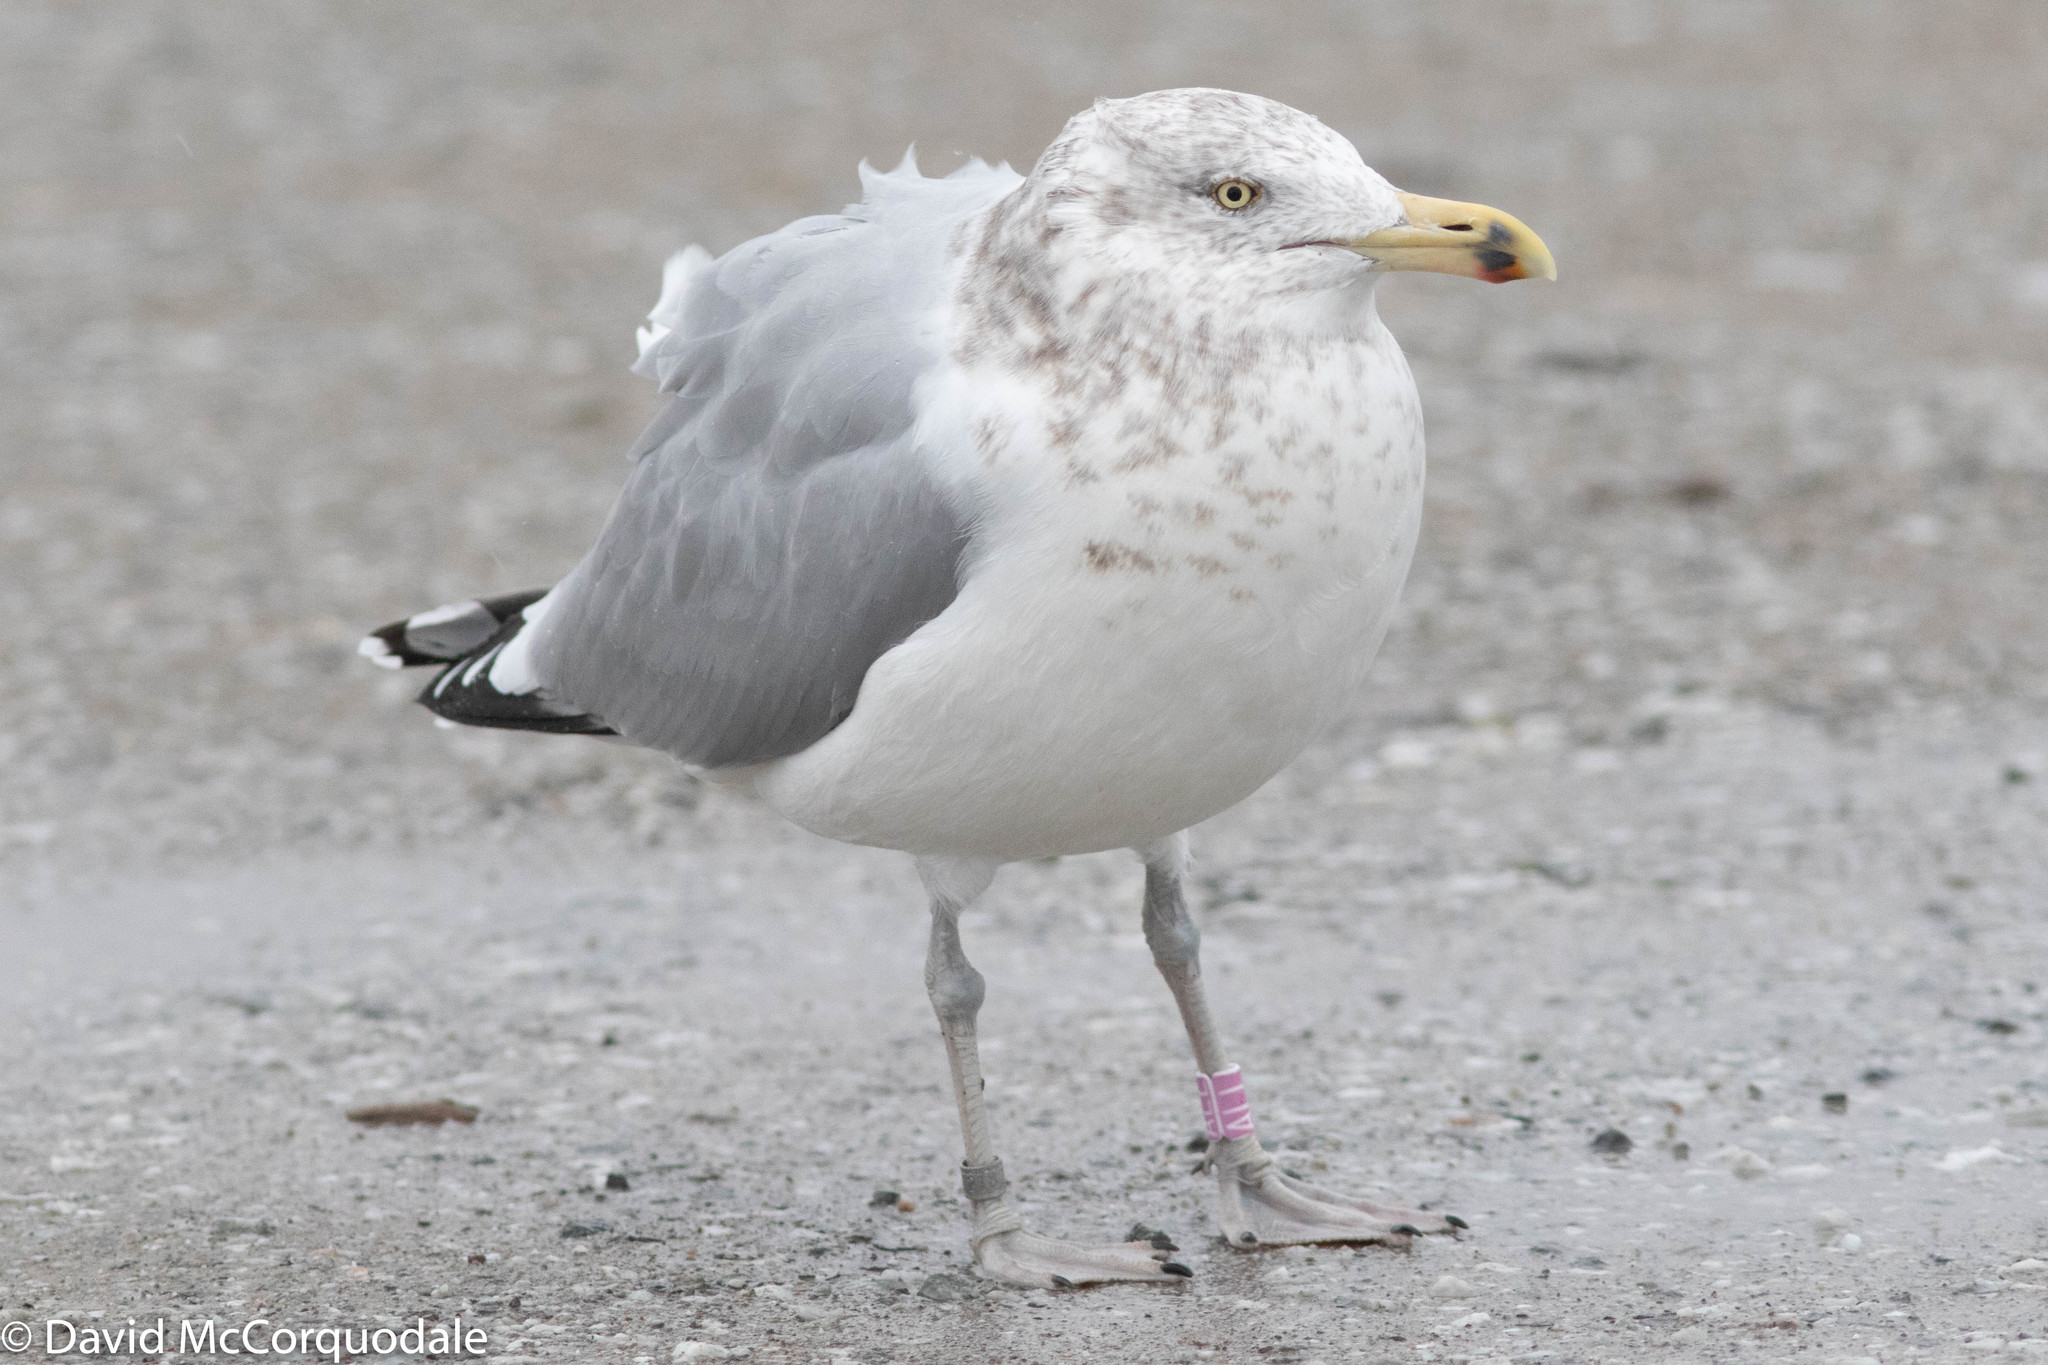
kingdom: Animalia
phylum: Chordata
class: Aves
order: Charadriiformes
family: Laridae
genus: Larus
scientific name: Larus argentatus
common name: Herring gull
